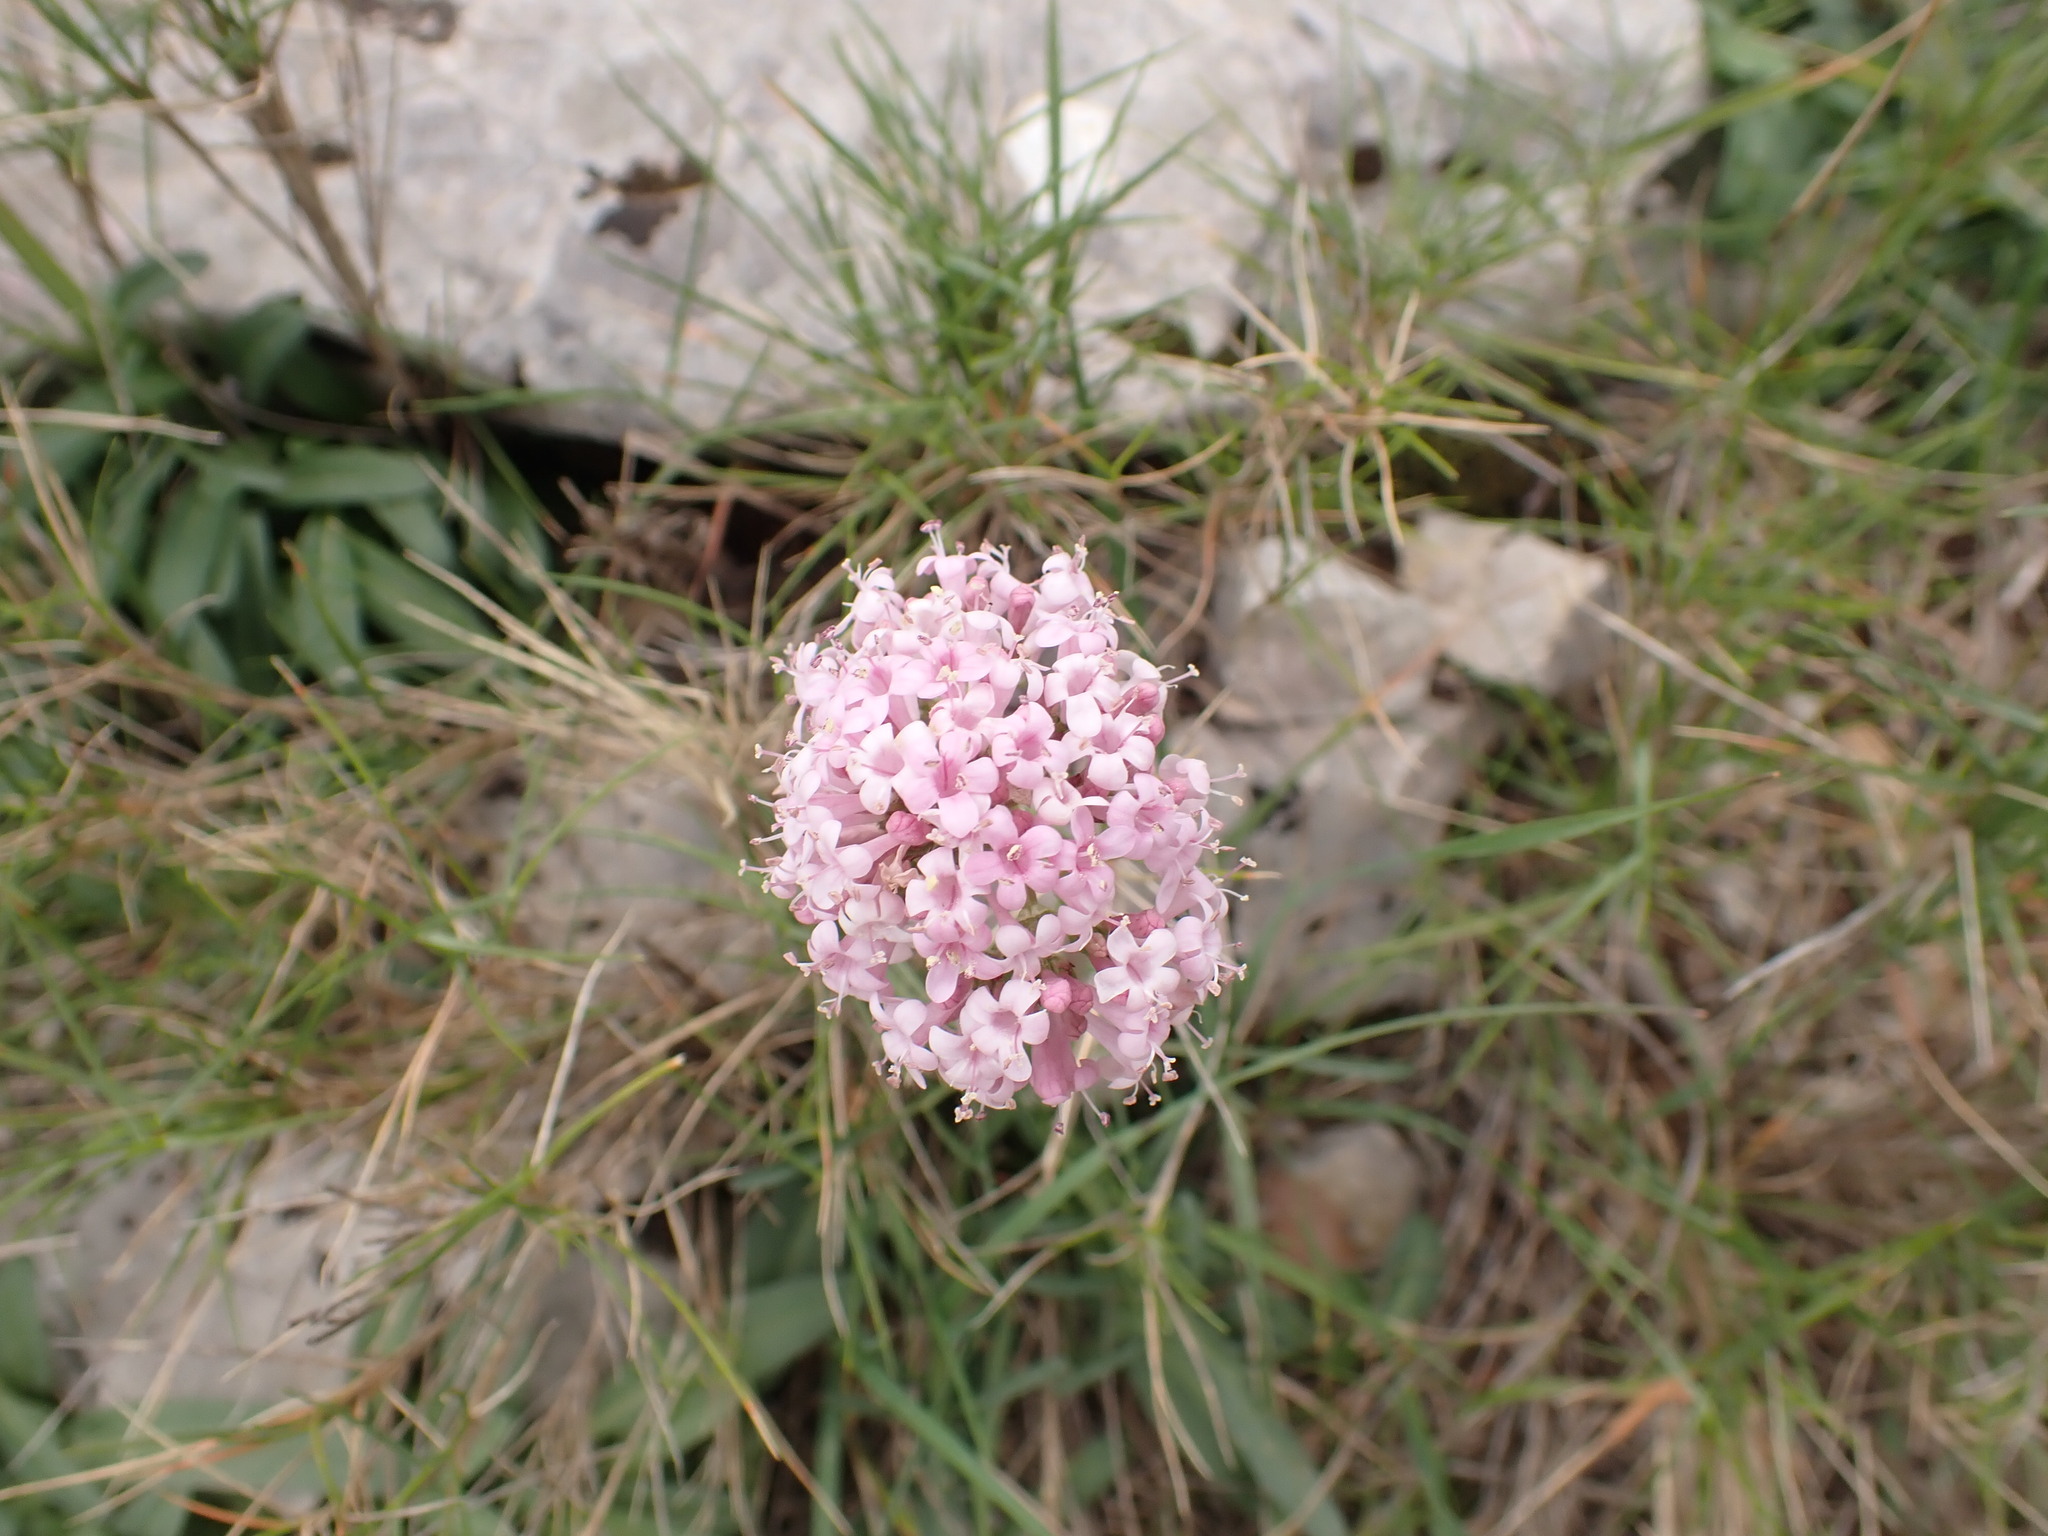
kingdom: Plantae
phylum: Tracheophyta
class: Magnoliopsida
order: Dipsacales
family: Caprifoliaceae
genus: Valeriana
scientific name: Valeriana tuberosa
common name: Tuberous valerian
